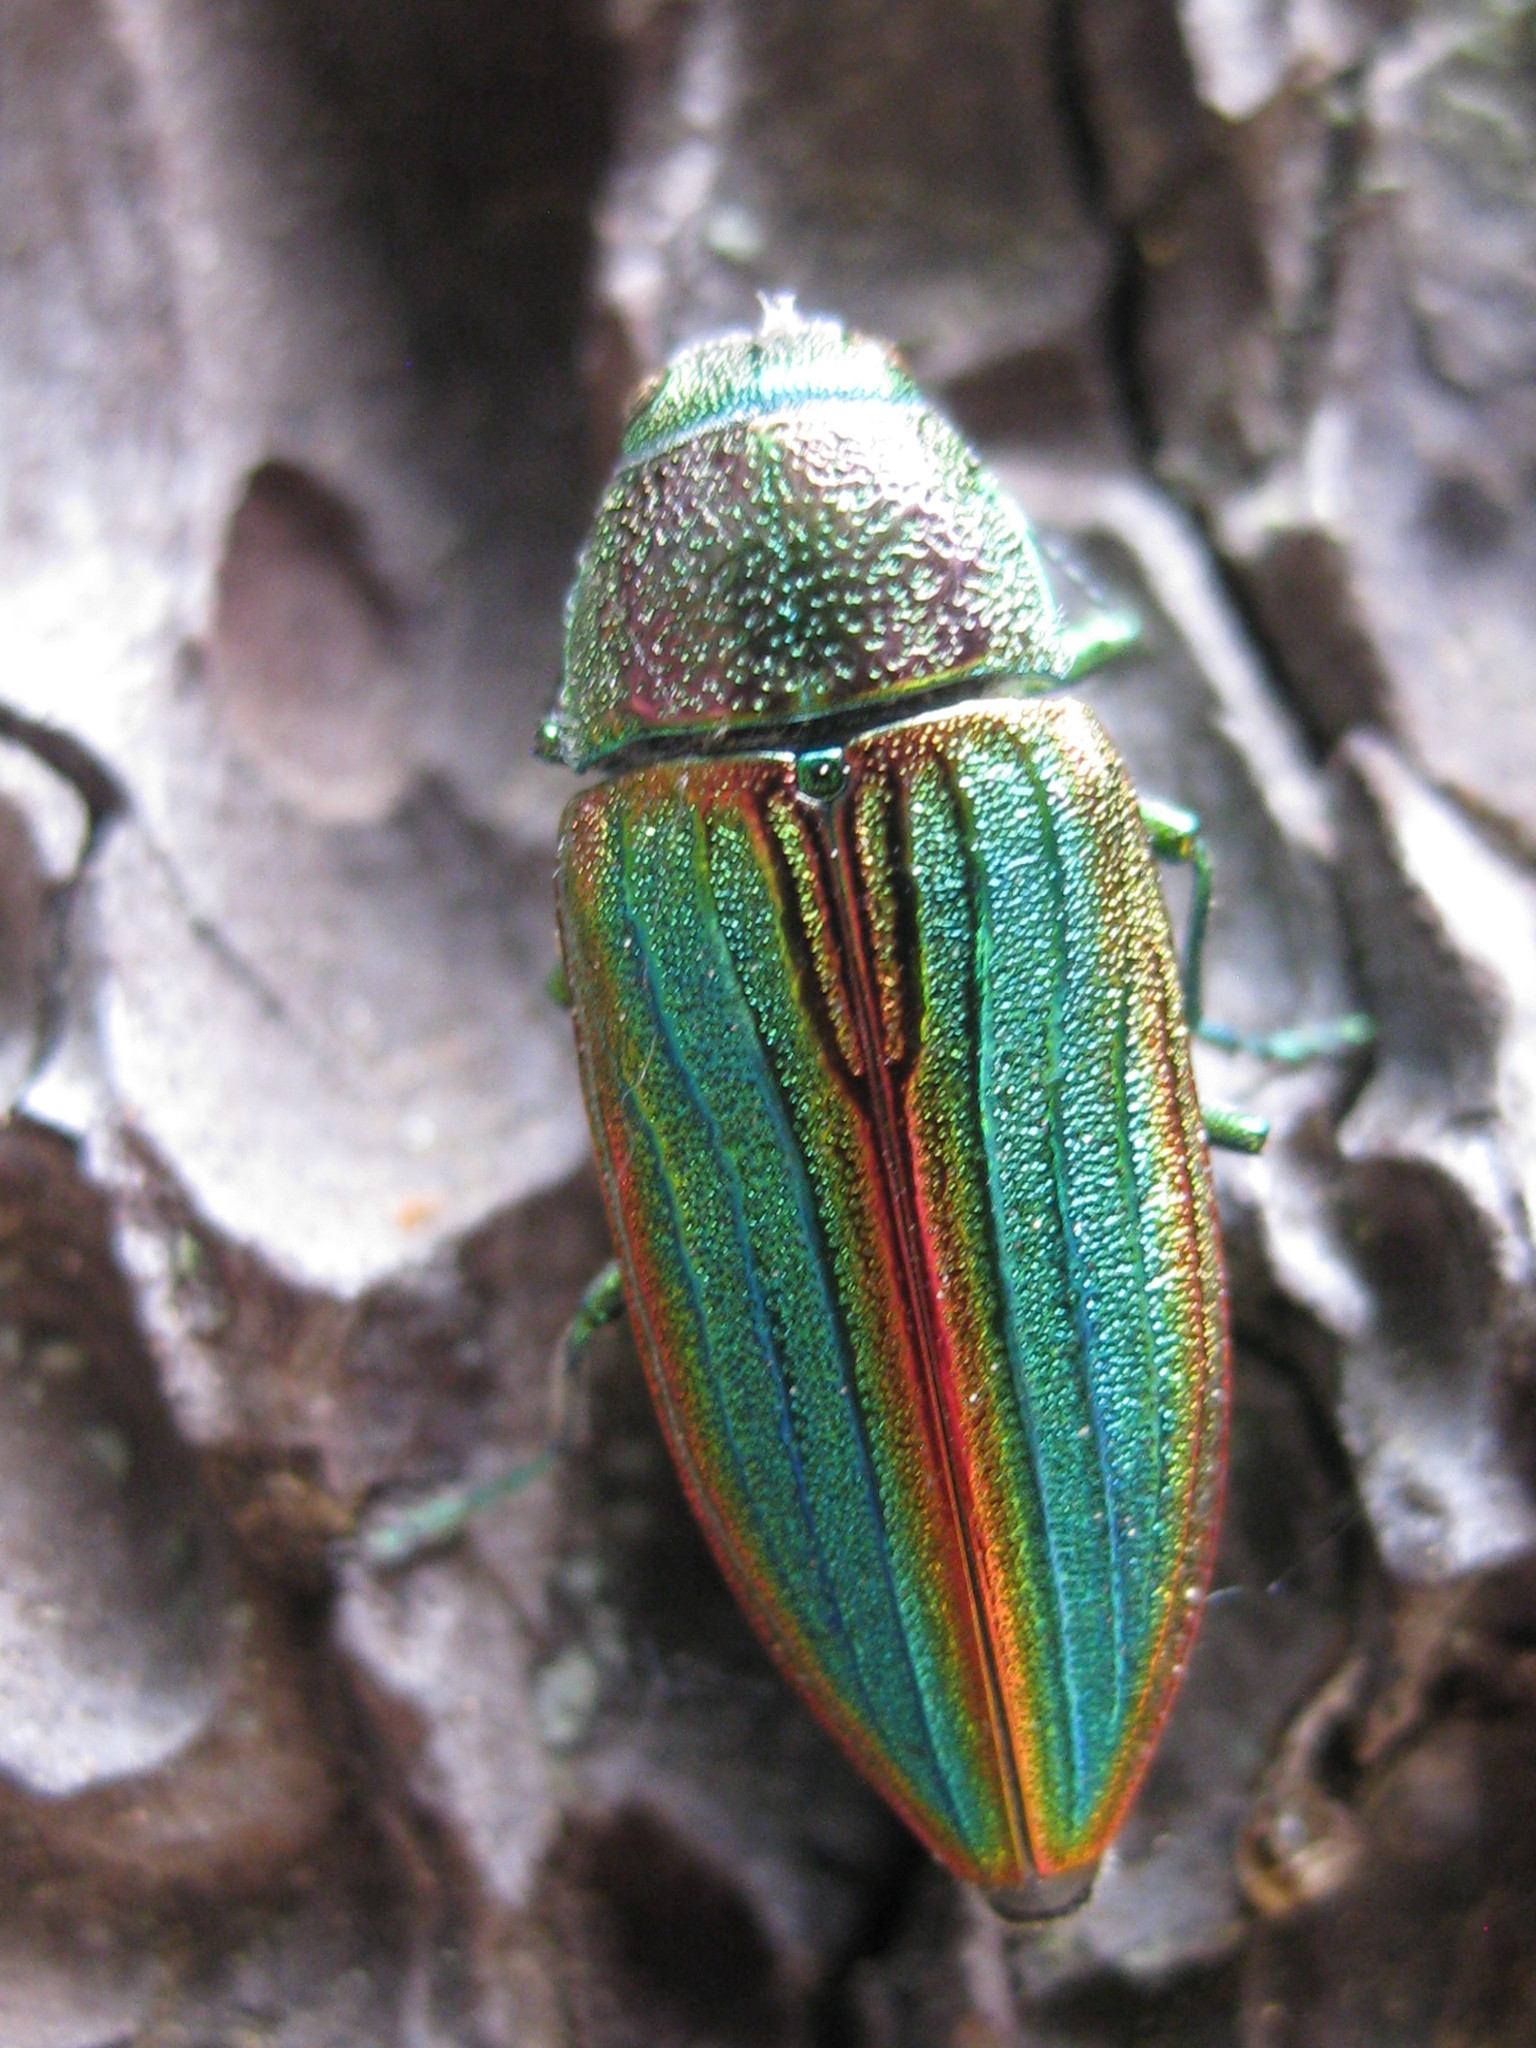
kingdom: Animalia
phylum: Arthropoda
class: Insecta
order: Coleoptera
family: Buprestidae
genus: Buprestis
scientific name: Buprestis aurulenta
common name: Golden buprestid
